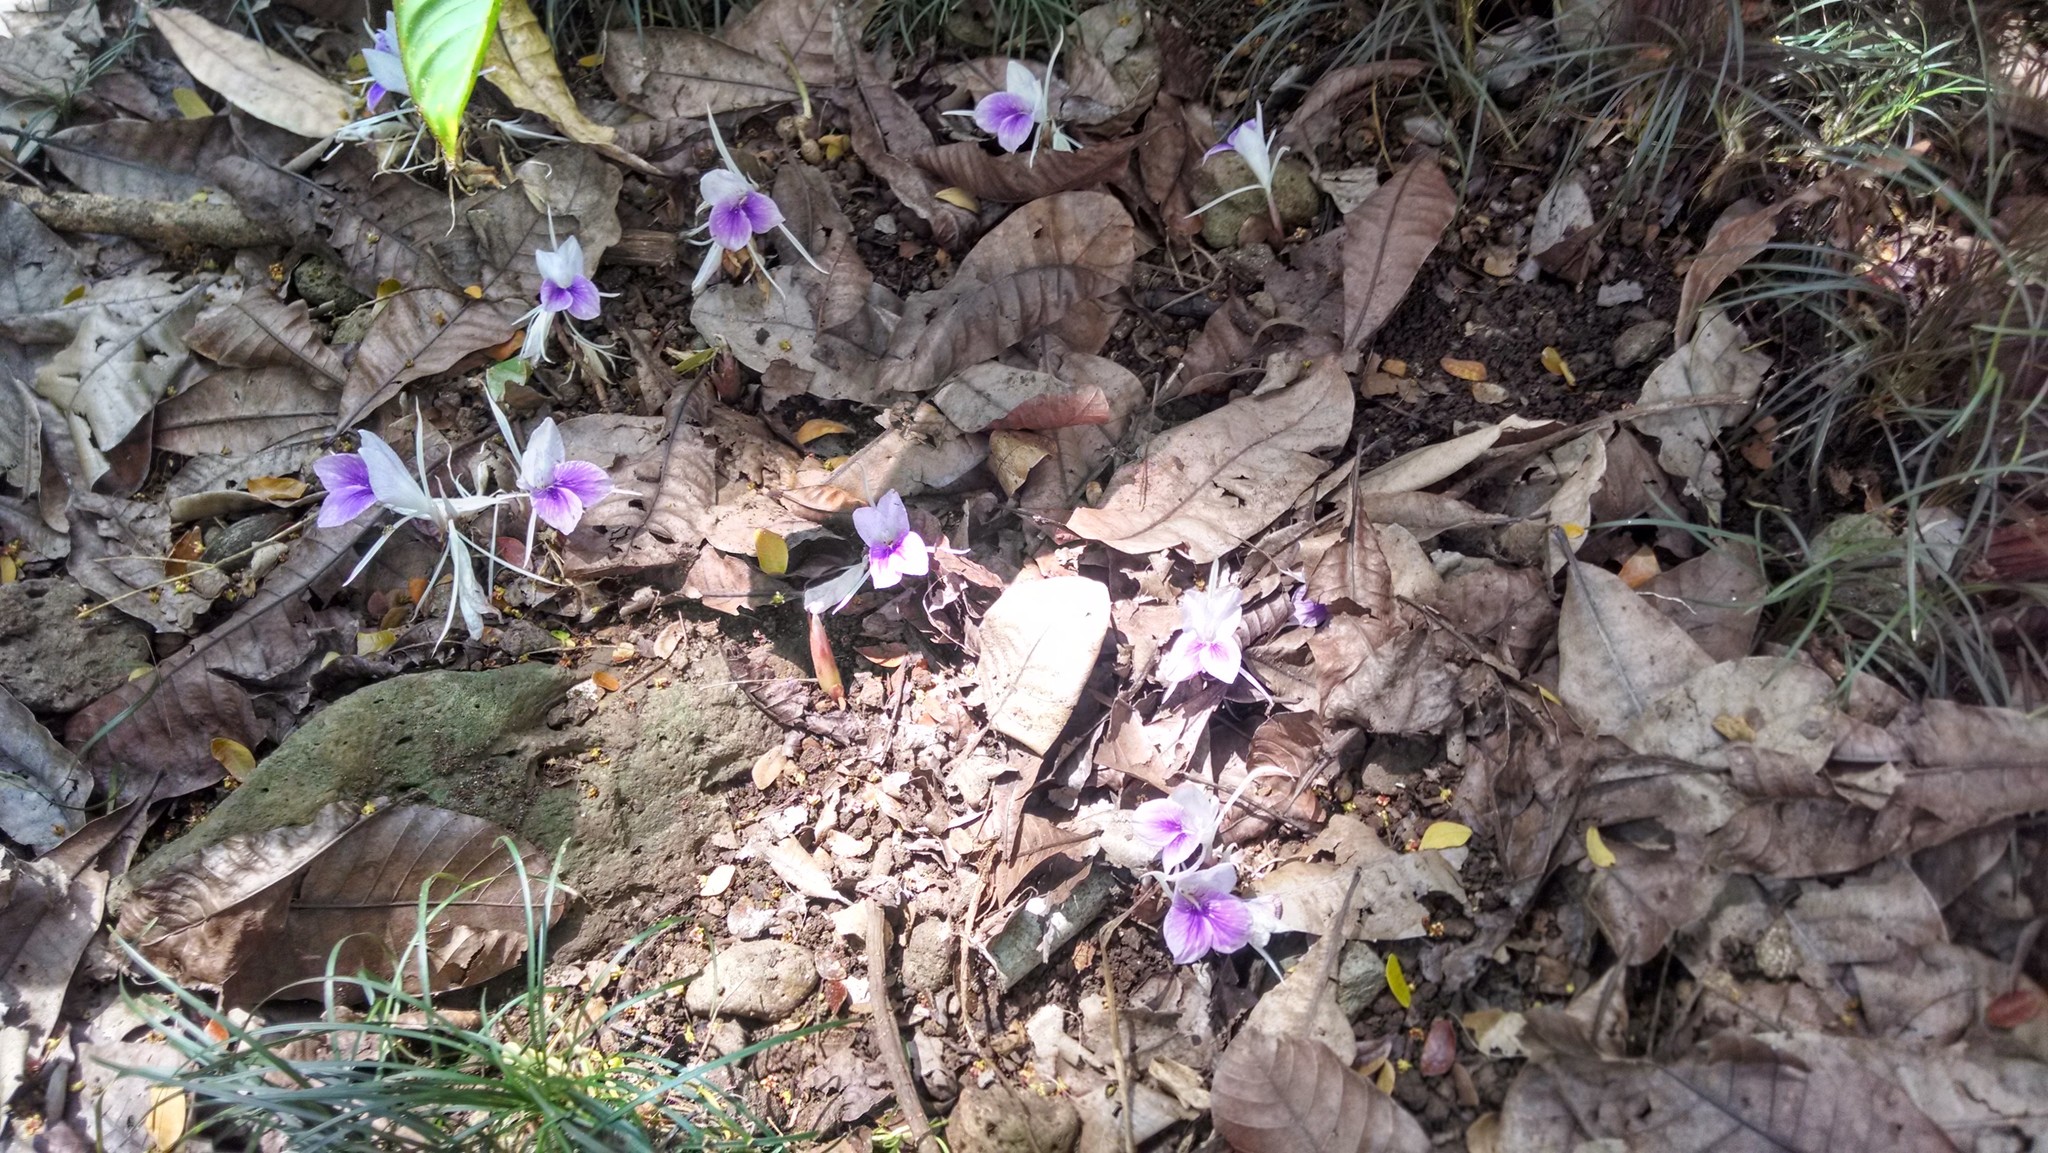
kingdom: Plantae
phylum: Tracheophyta
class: Liliopsida
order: Zingiberales
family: Zingiberaceae
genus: Kaempferia
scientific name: Kaempferia rotunda
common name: Tropical-crocus
